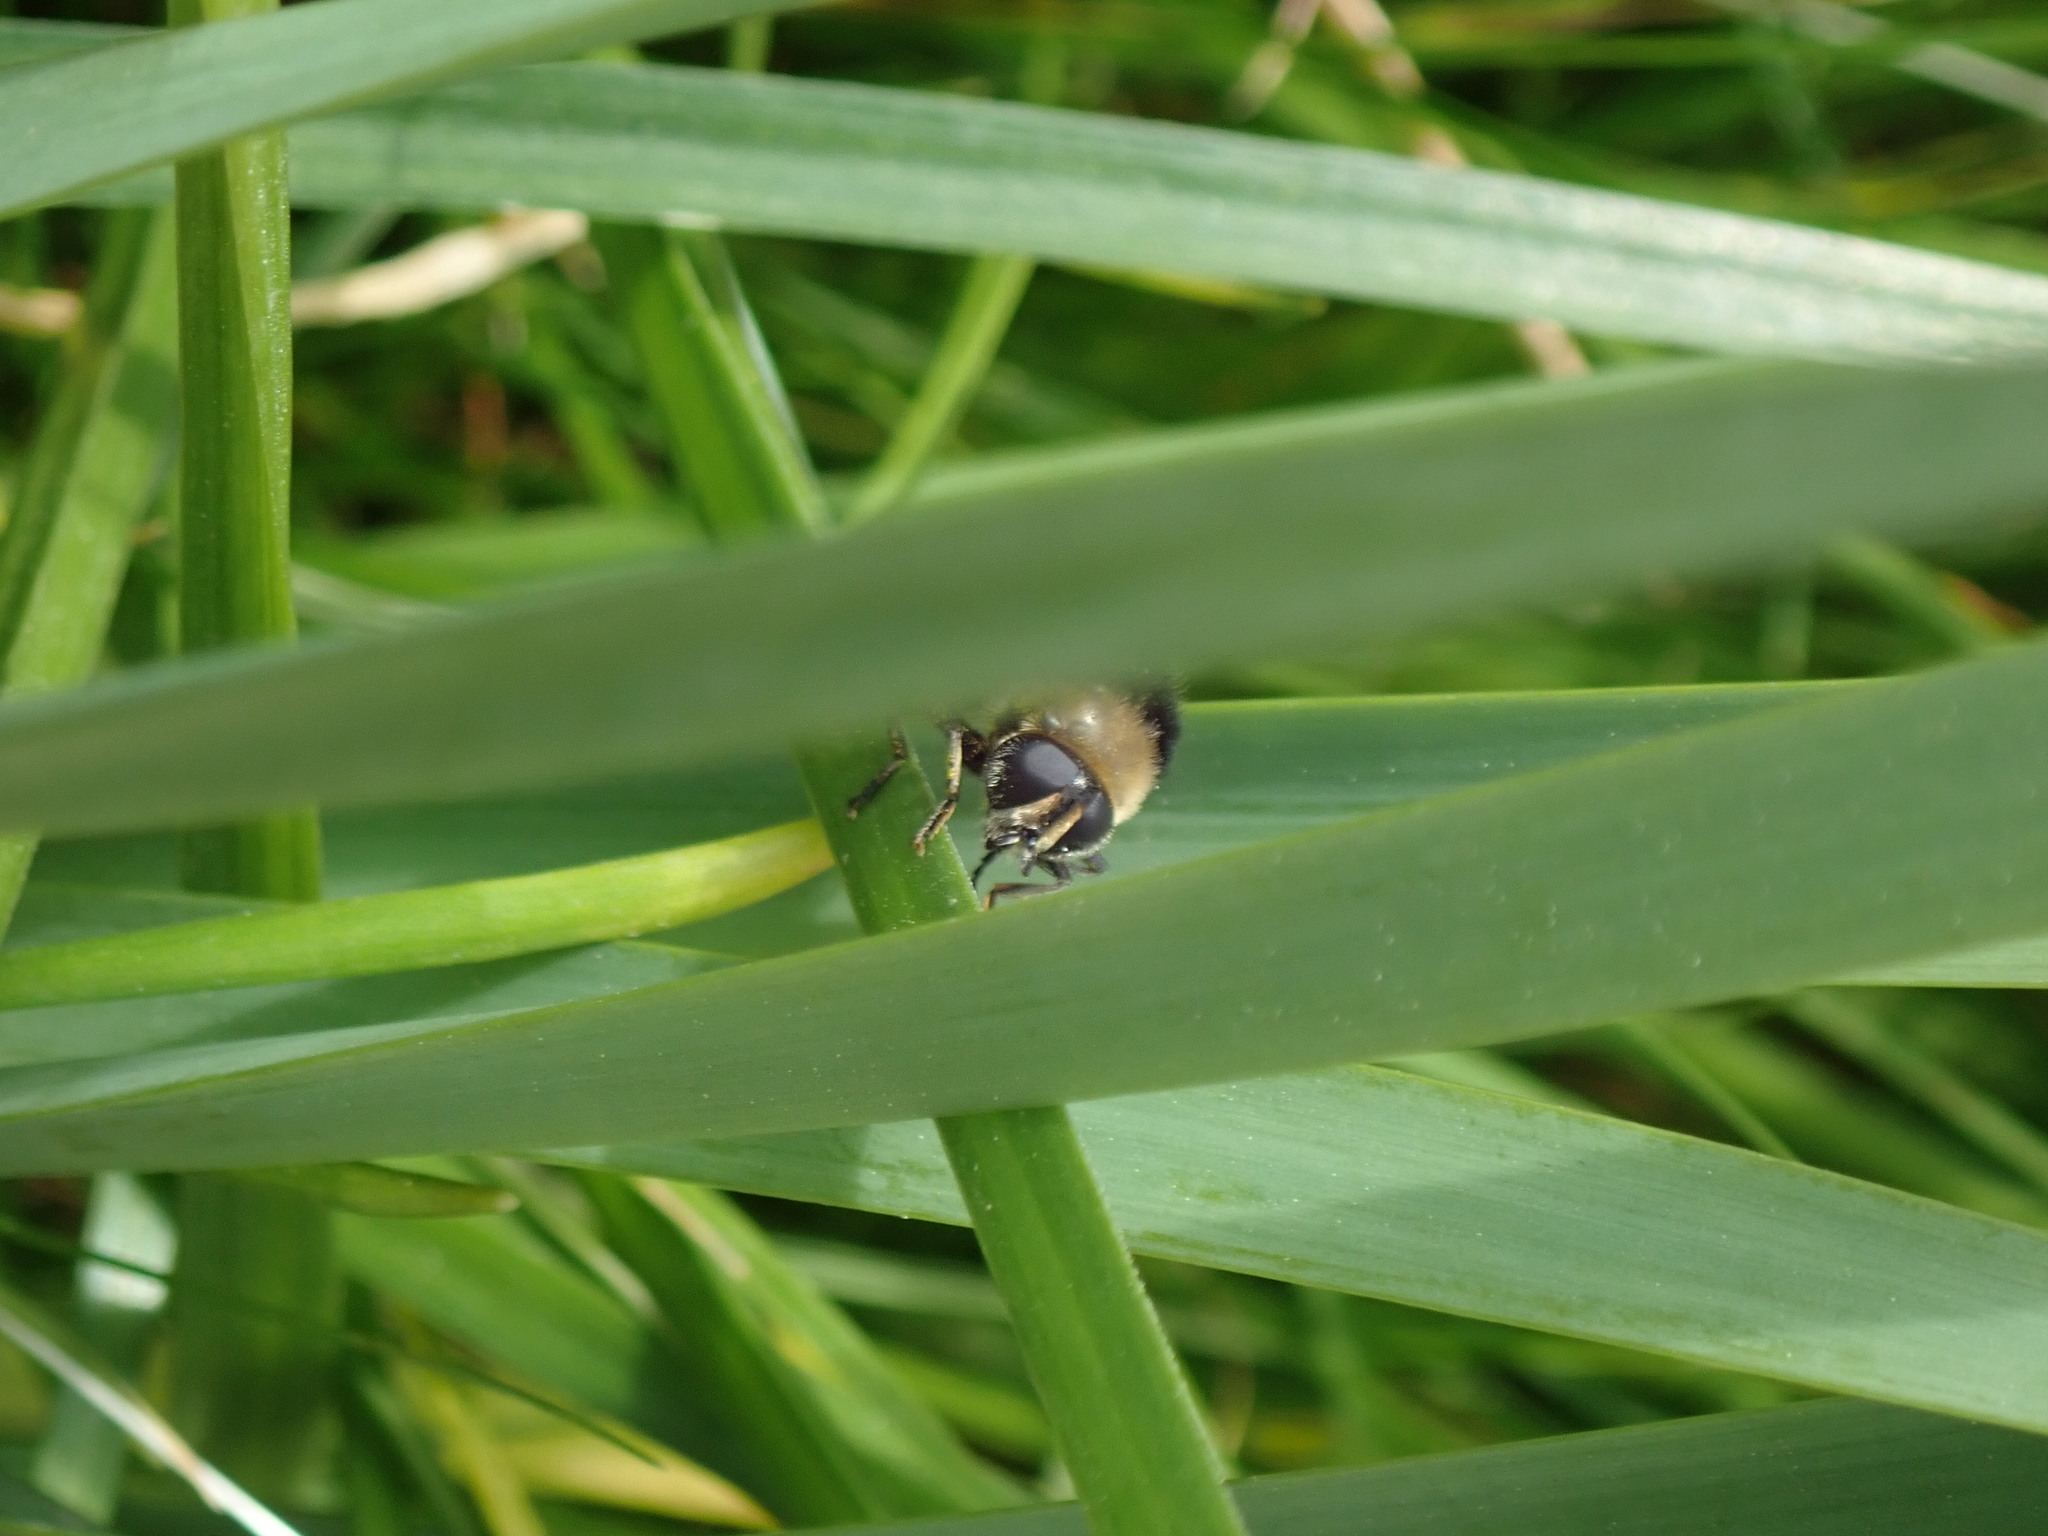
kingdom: Animalia
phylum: Arthropoda
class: Insecta
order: Diptera
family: Syrphidae
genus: Merodon
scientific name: Merodon equestris
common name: Greater bulb-fly
